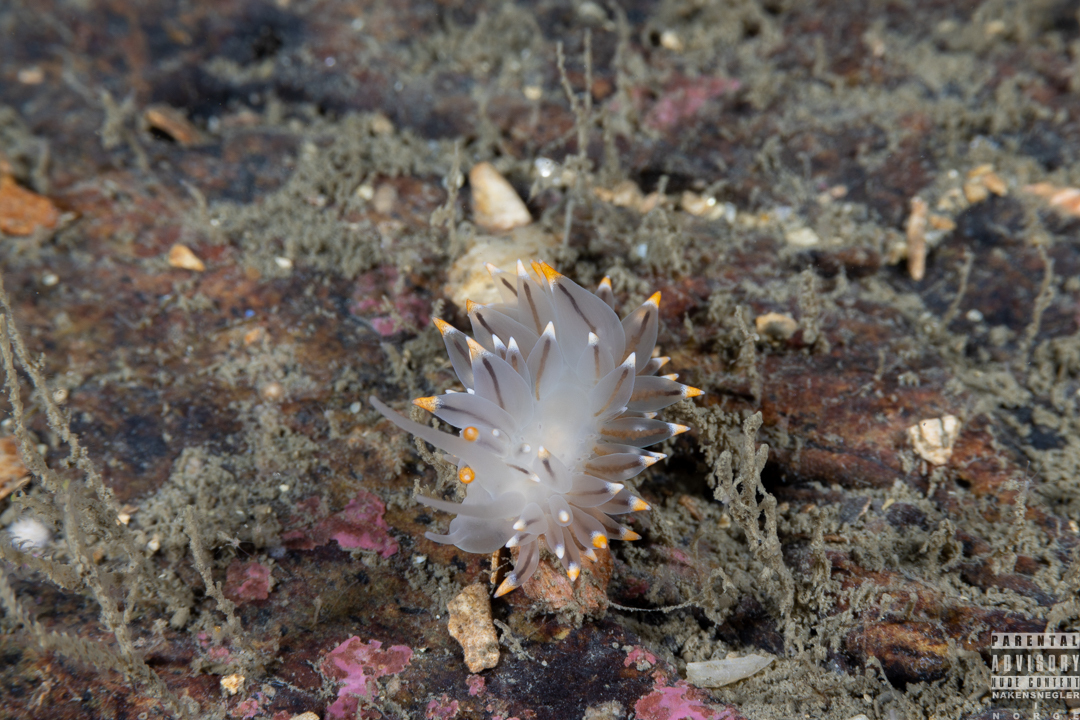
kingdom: Animalia
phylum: Mollusca
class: Gastropoda
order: Nudibranchia
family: Eubranchidae
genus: Eubranchus
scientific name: Eubranchus tricolor
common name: Painted balloon aeolis
